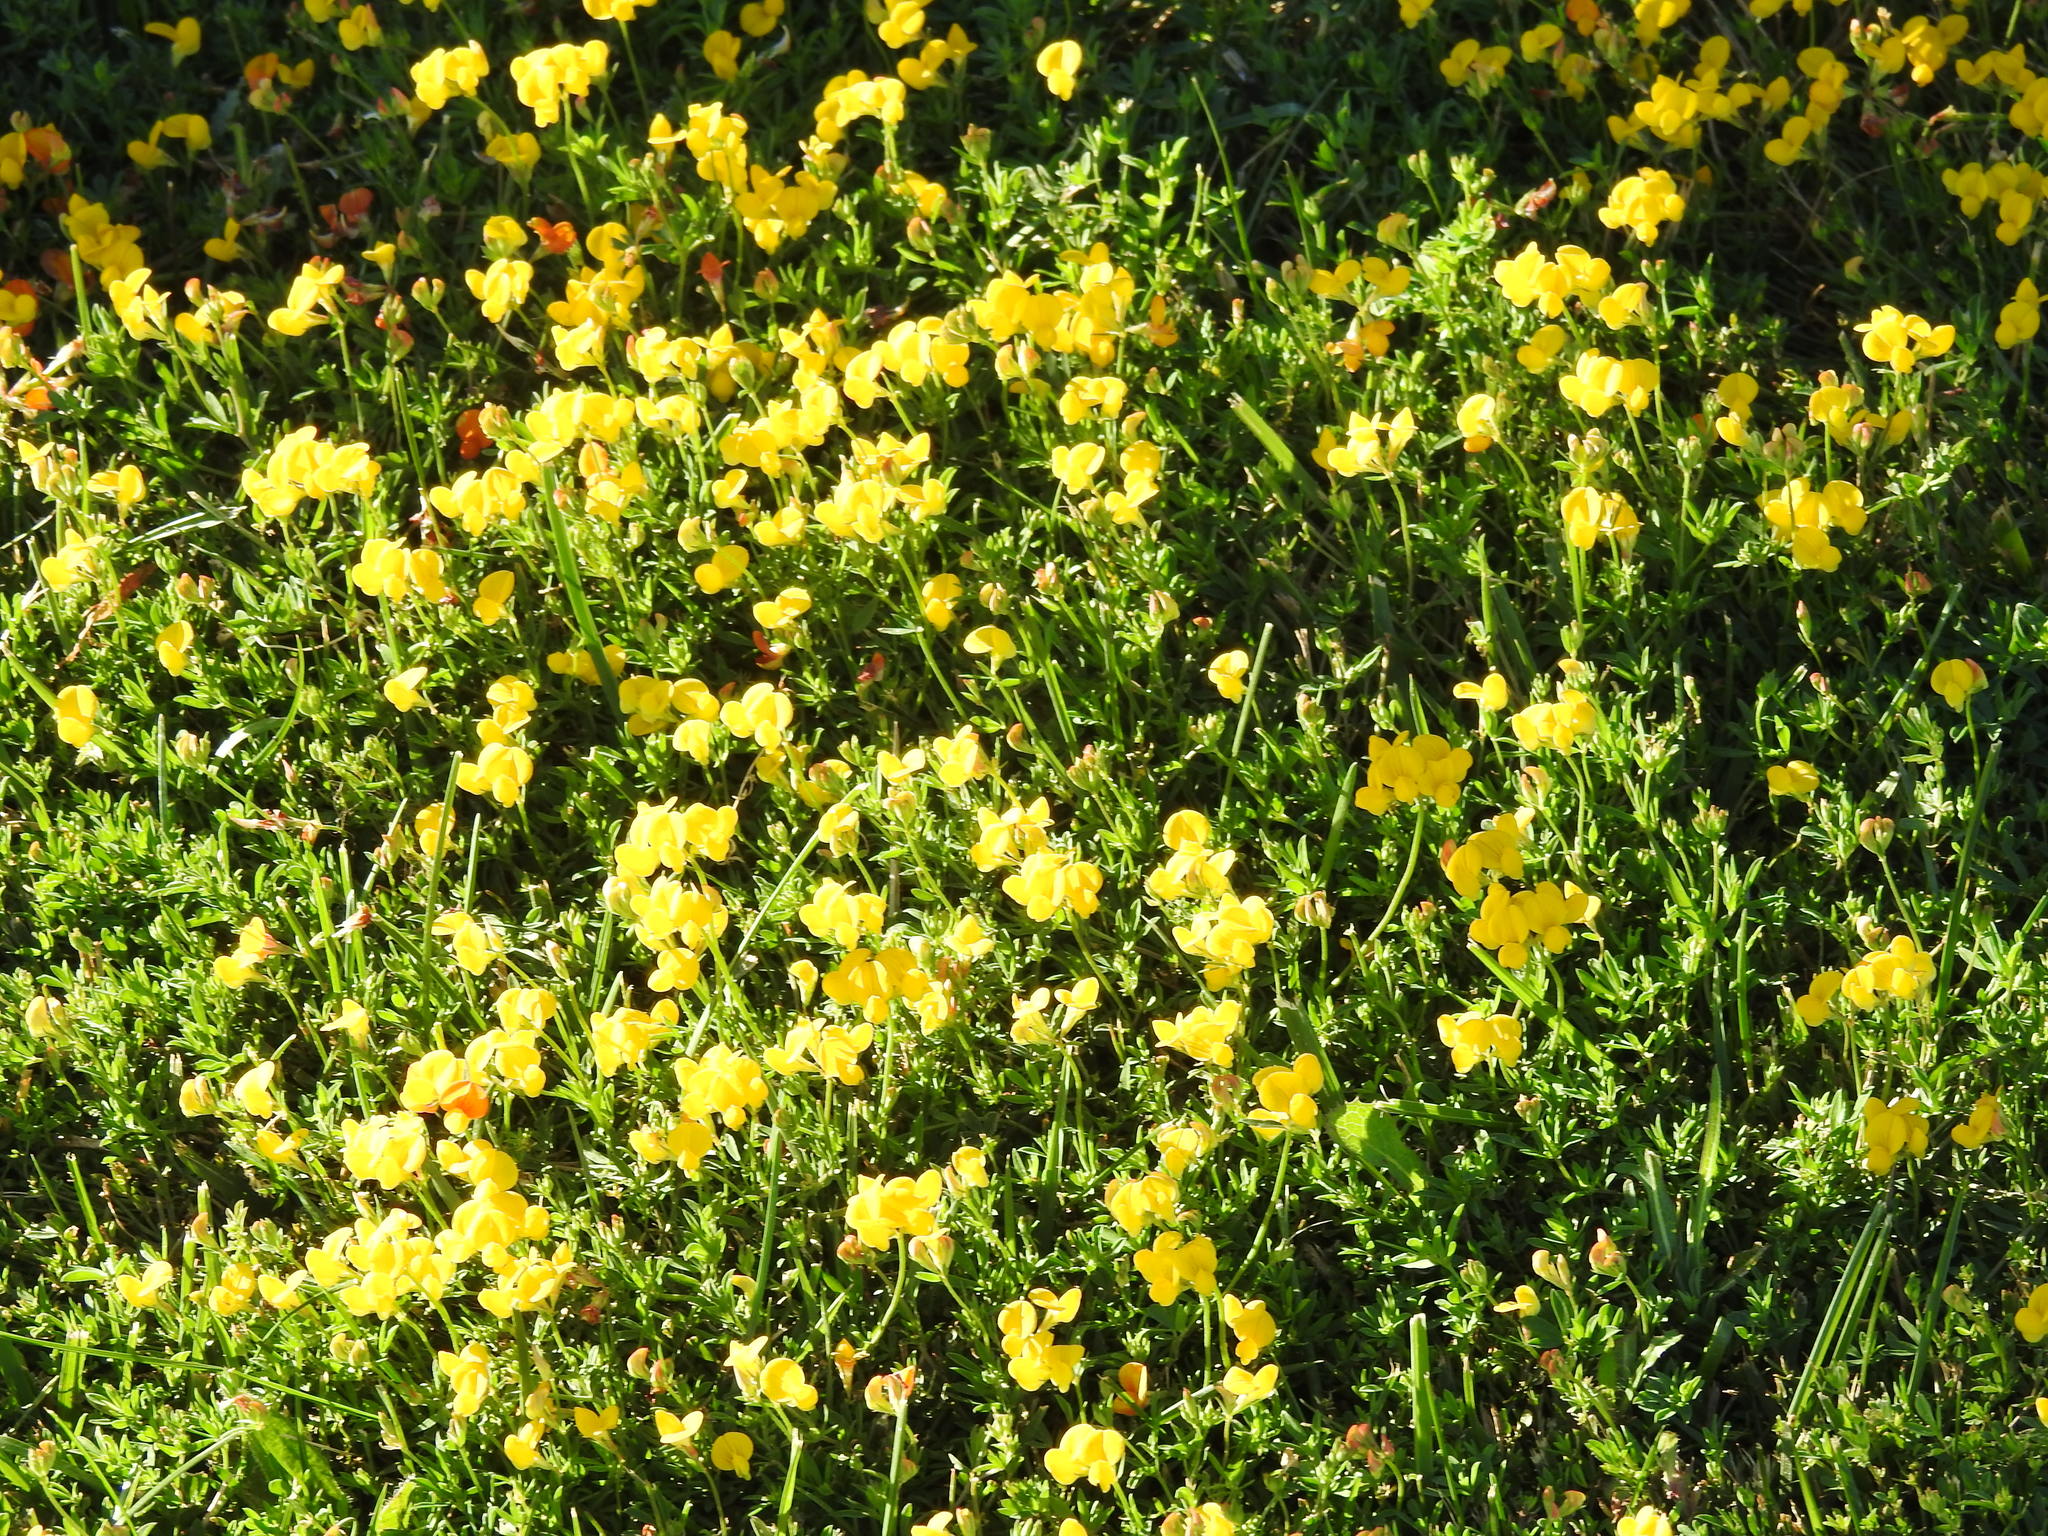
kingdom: Plantae
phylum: Tracheophyta
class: Magnoliopsida
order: Fabales
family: Fabaceae
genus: Lotus
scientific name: Lotus corniculatus
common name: Common bird's-foot-trefoil
